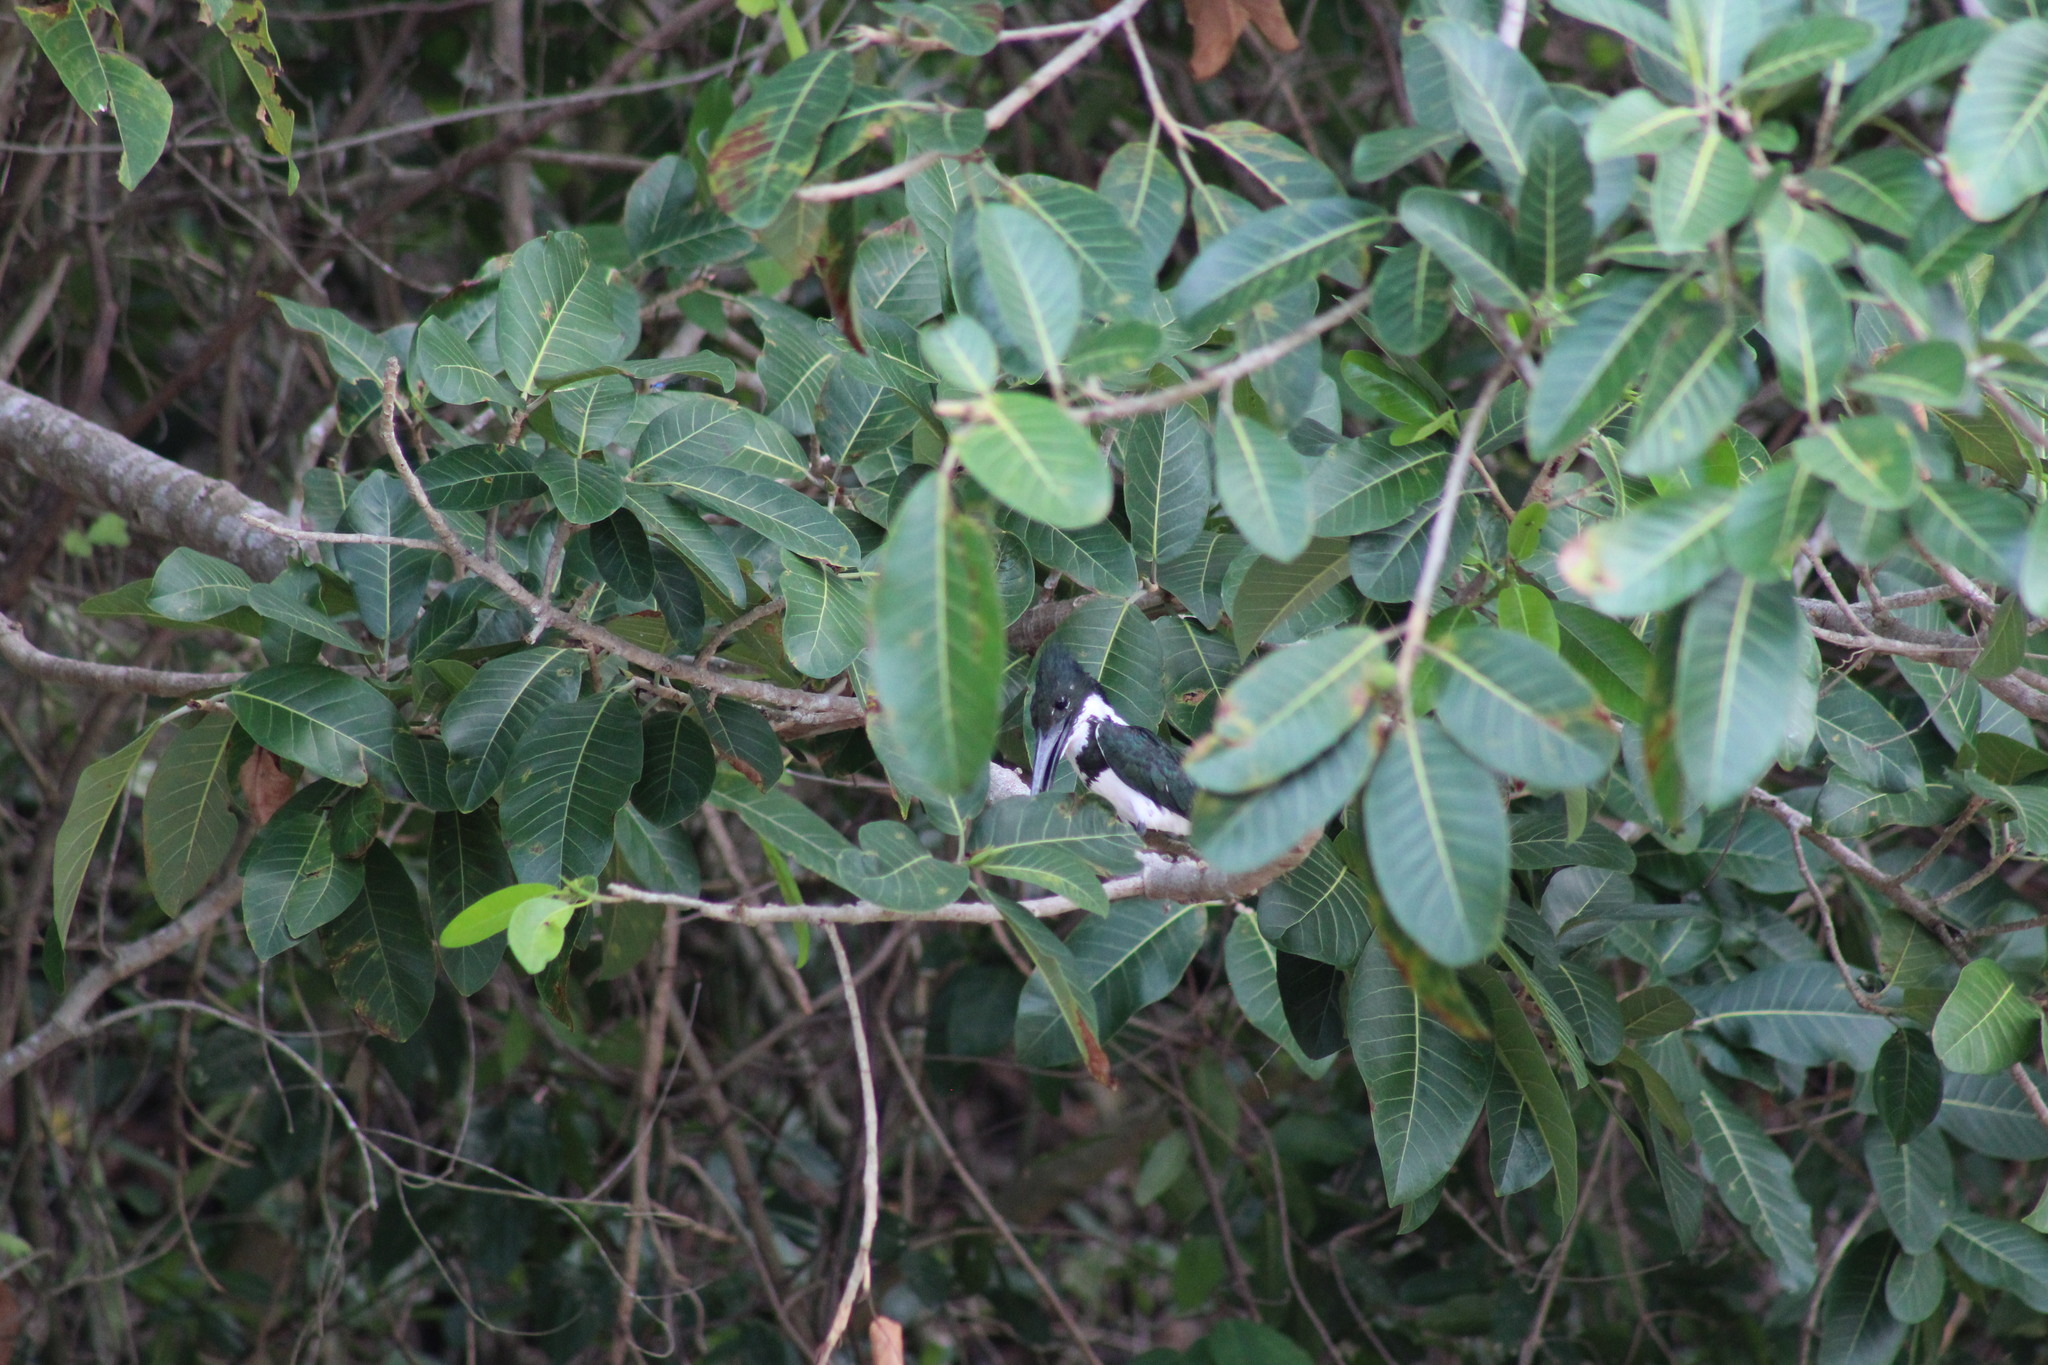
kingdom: Animalia
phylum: Chordata
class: Aves
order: Coraciiformes
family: Alcedinidae
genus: Chloroceryle
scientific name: Chloroceryle amazona
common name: Amazon kingfisher
